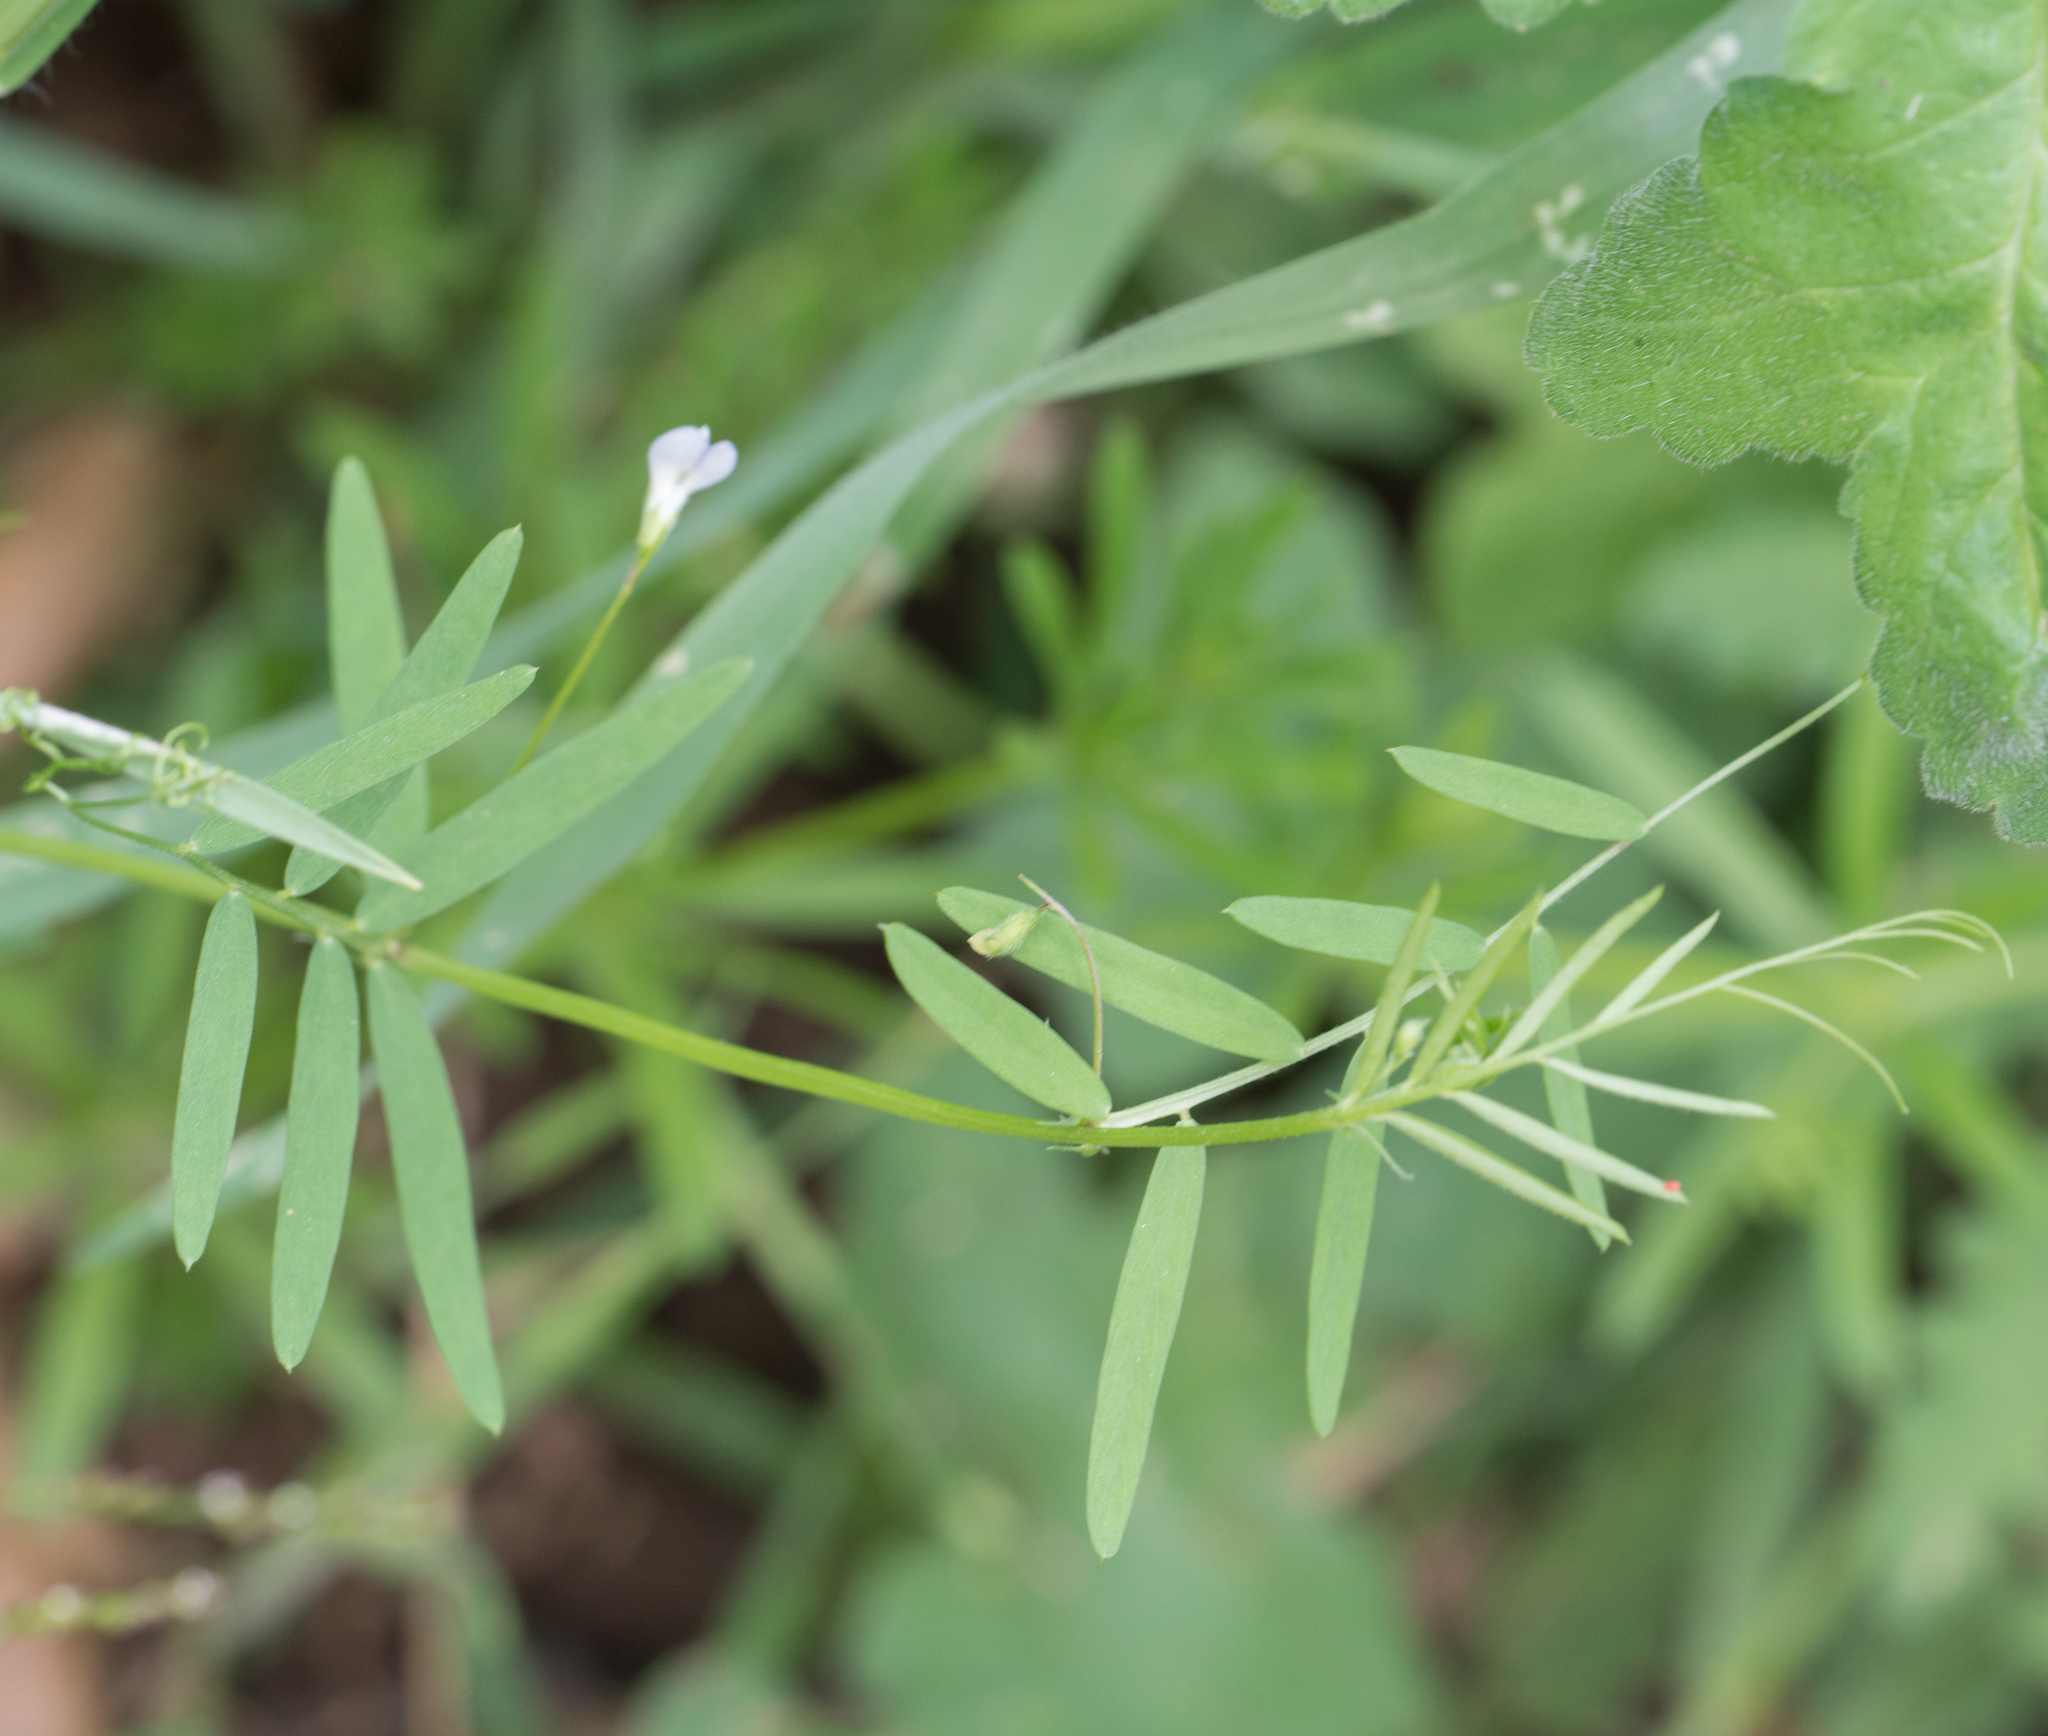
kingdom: Plantae
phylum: Tracheophyta
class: Magnoliopsida
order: Fabales
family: Fabaceae
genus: Vicia
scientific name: Vicia hassei
